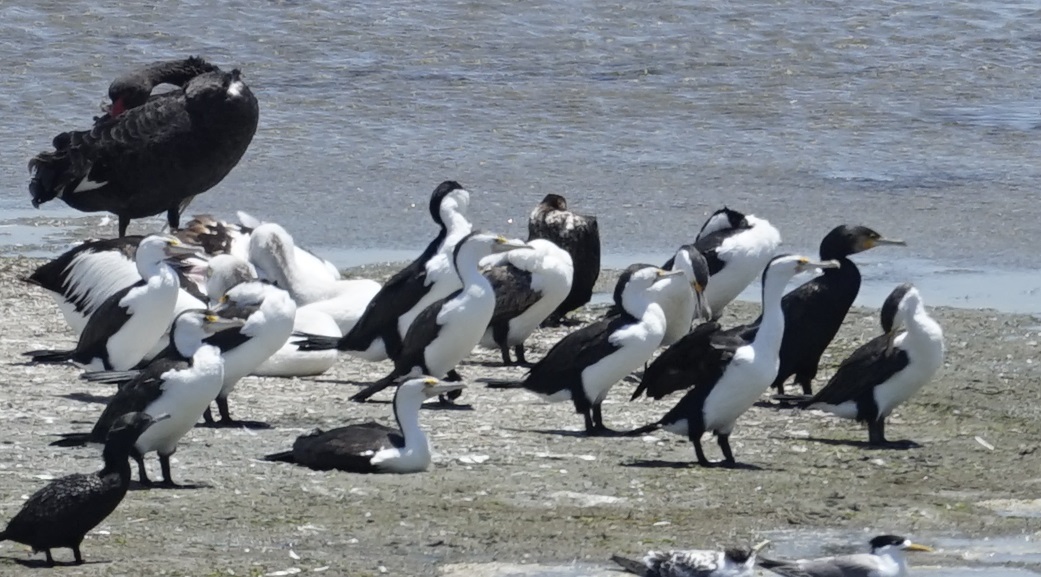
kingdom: Animalia
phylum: Chordata
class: Aves
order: Suliformes
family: Phalacrocoracidae
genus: Phalacrocorax
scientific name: Phalacrocorax varius
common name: Pied cormorant
